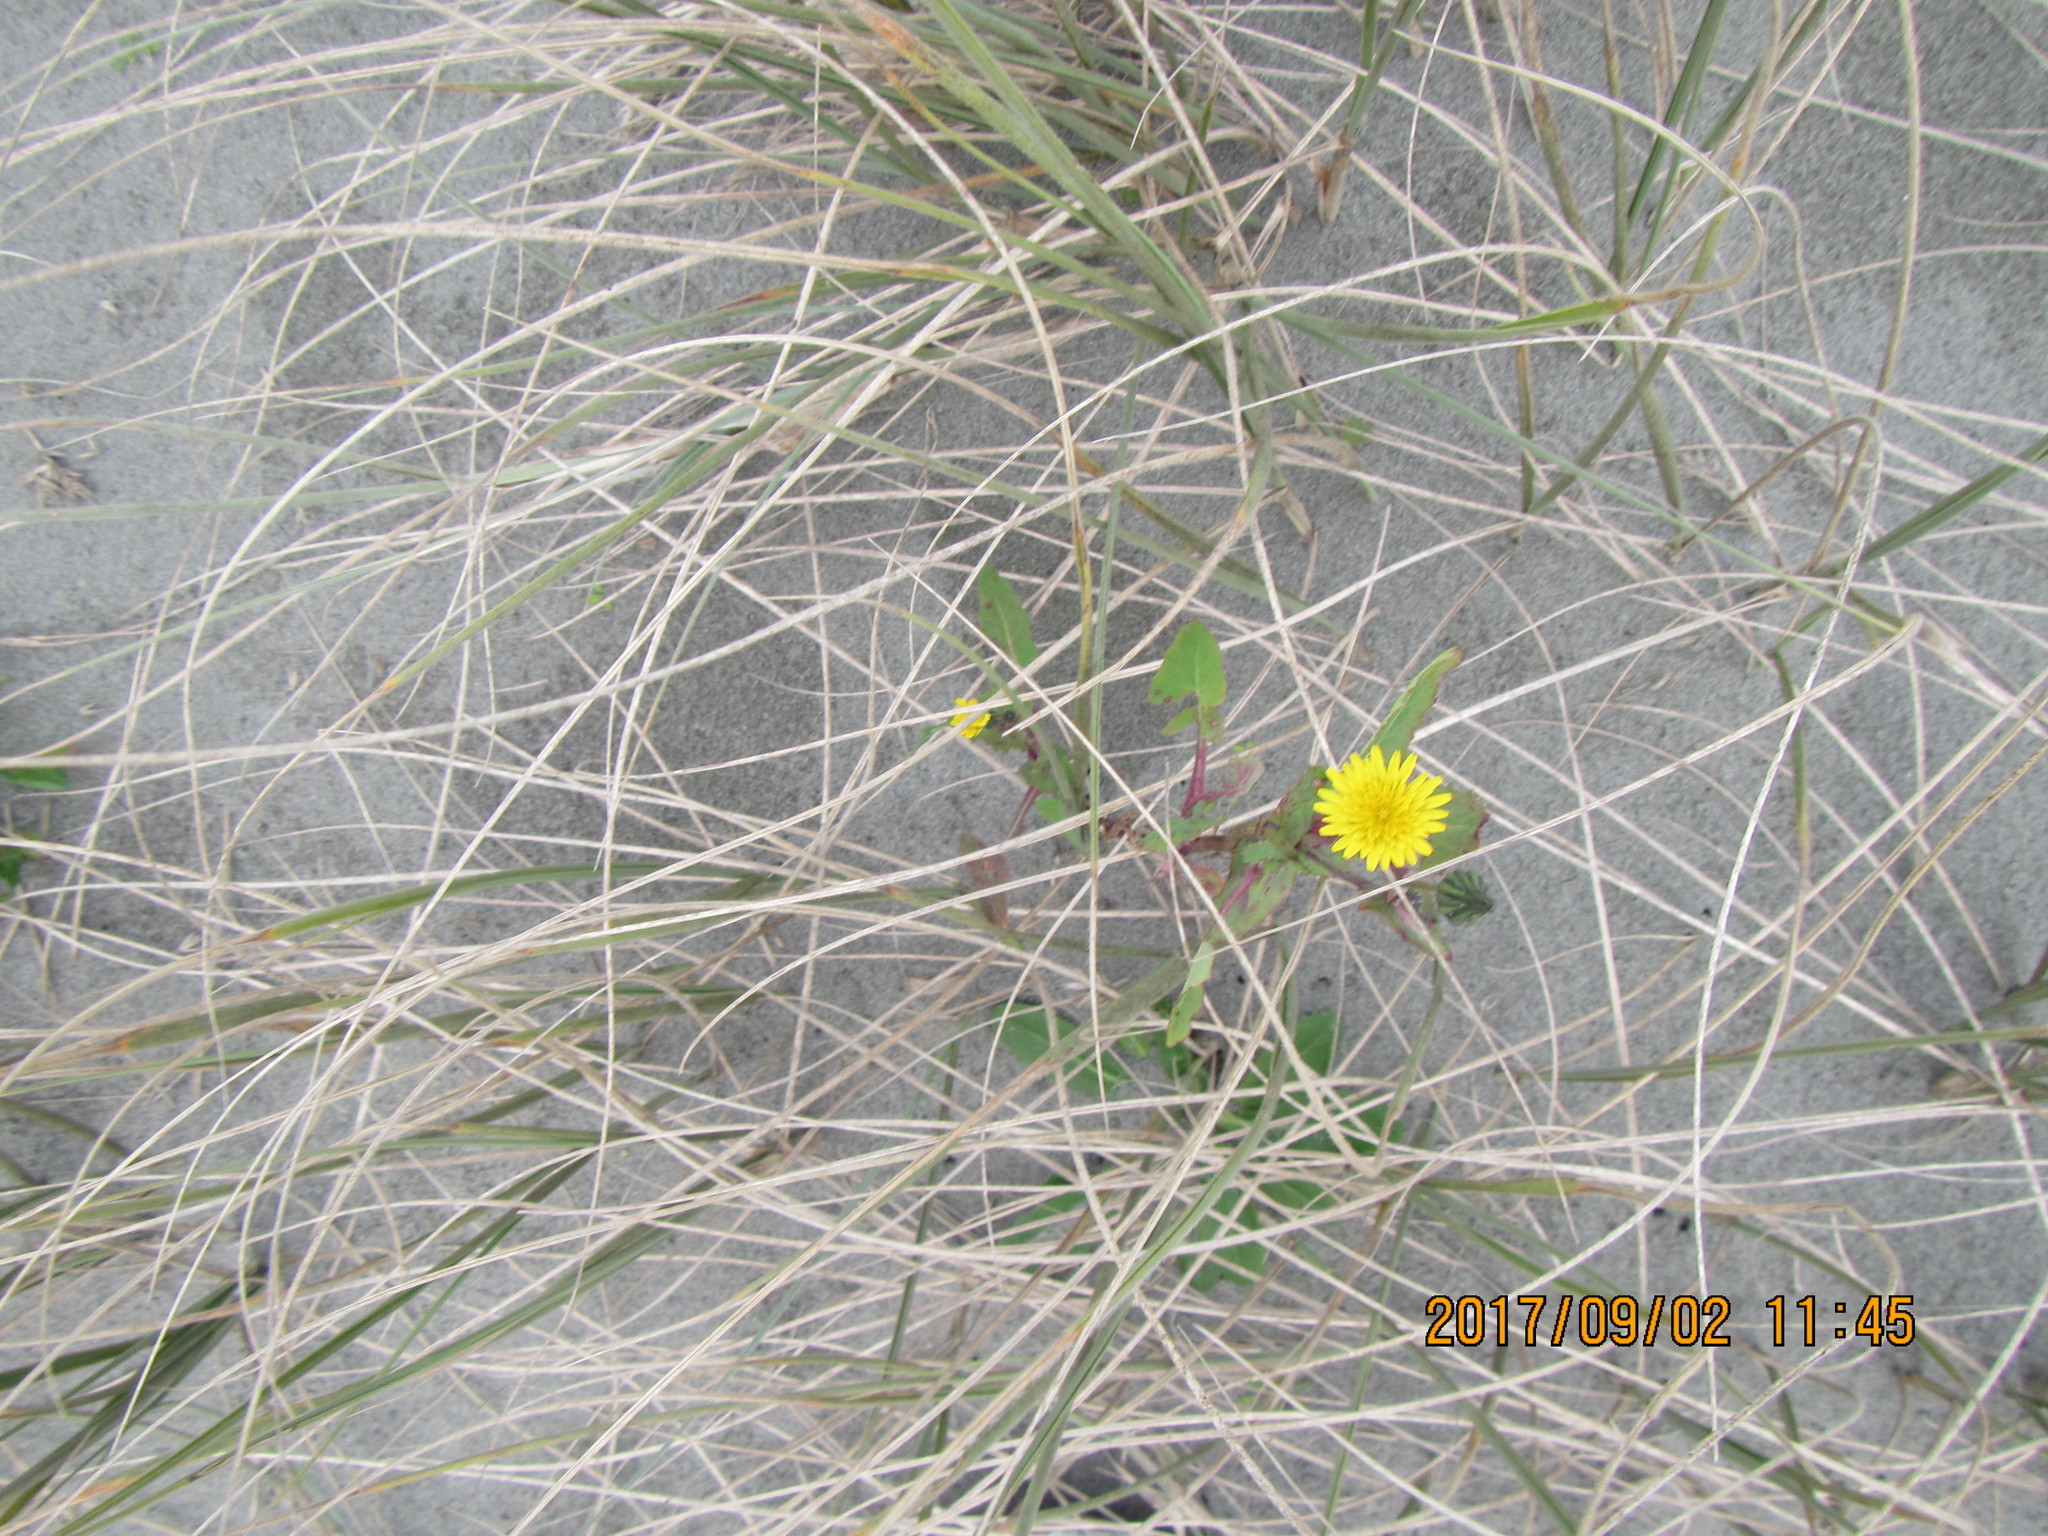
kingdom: Plantae
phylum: Tracheophyta
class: Magnoliopsida
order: Asterales
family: Asteraceae
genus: Sonchus
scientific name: Sonchus oleraceus
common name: Common sowthistle
